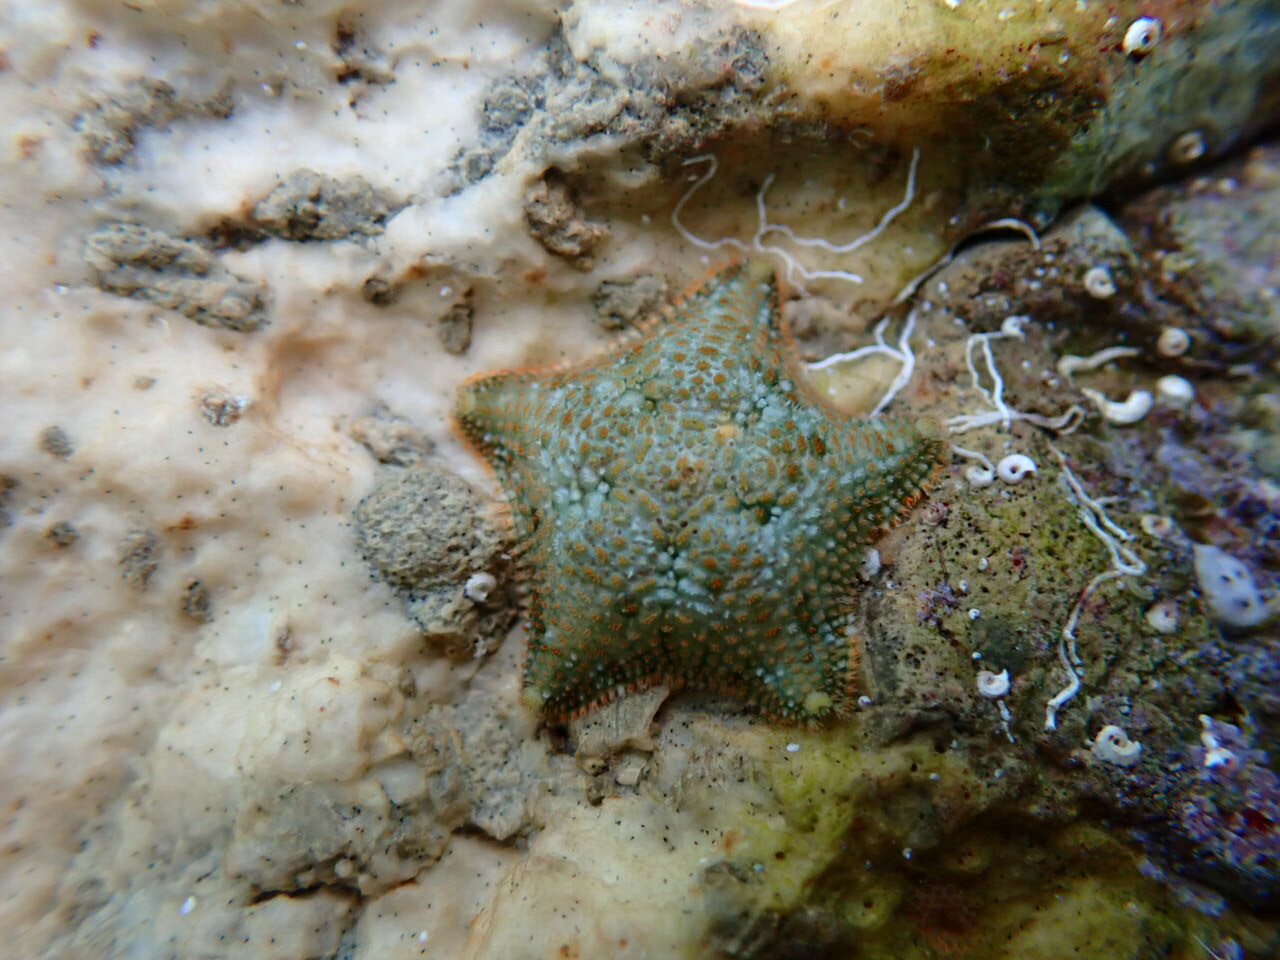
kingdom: Animalia
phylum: Echinodermata
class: Asteroidea
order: Valvatida
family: Asterinidae
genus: Asterina
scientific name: Asterina gibbosa
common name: Cushion star
